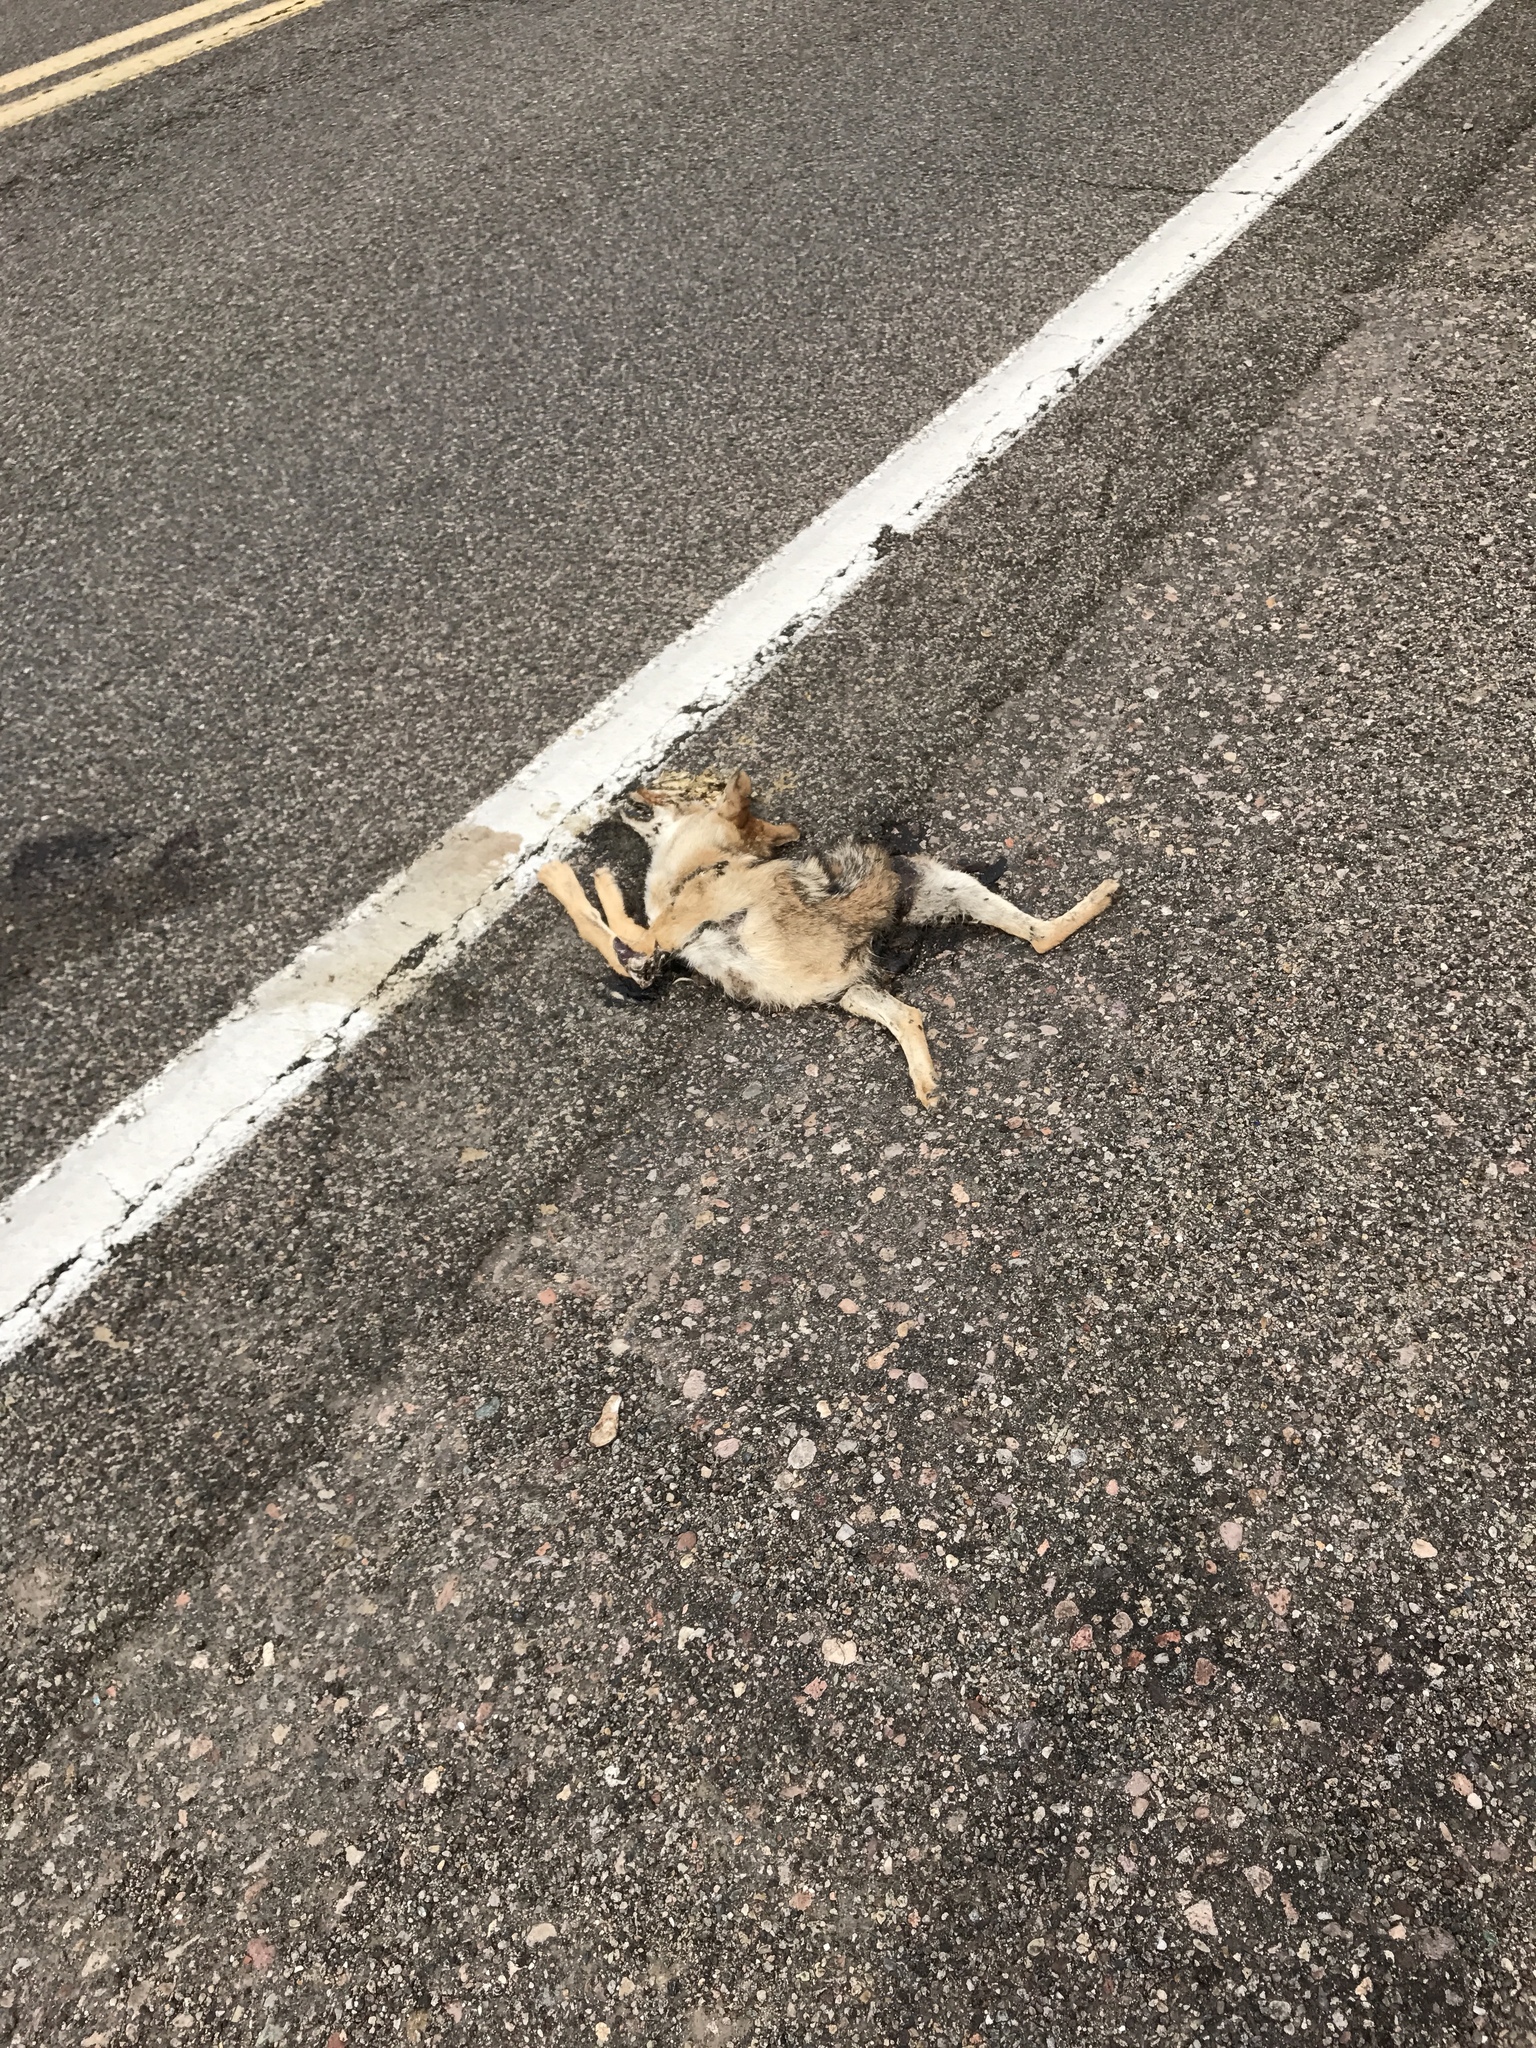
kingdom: Animalia
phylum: Chordata
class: Mammalia
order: Carnivora
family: Canidae
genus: Canis
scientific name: Canis latrans
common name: Coyote
